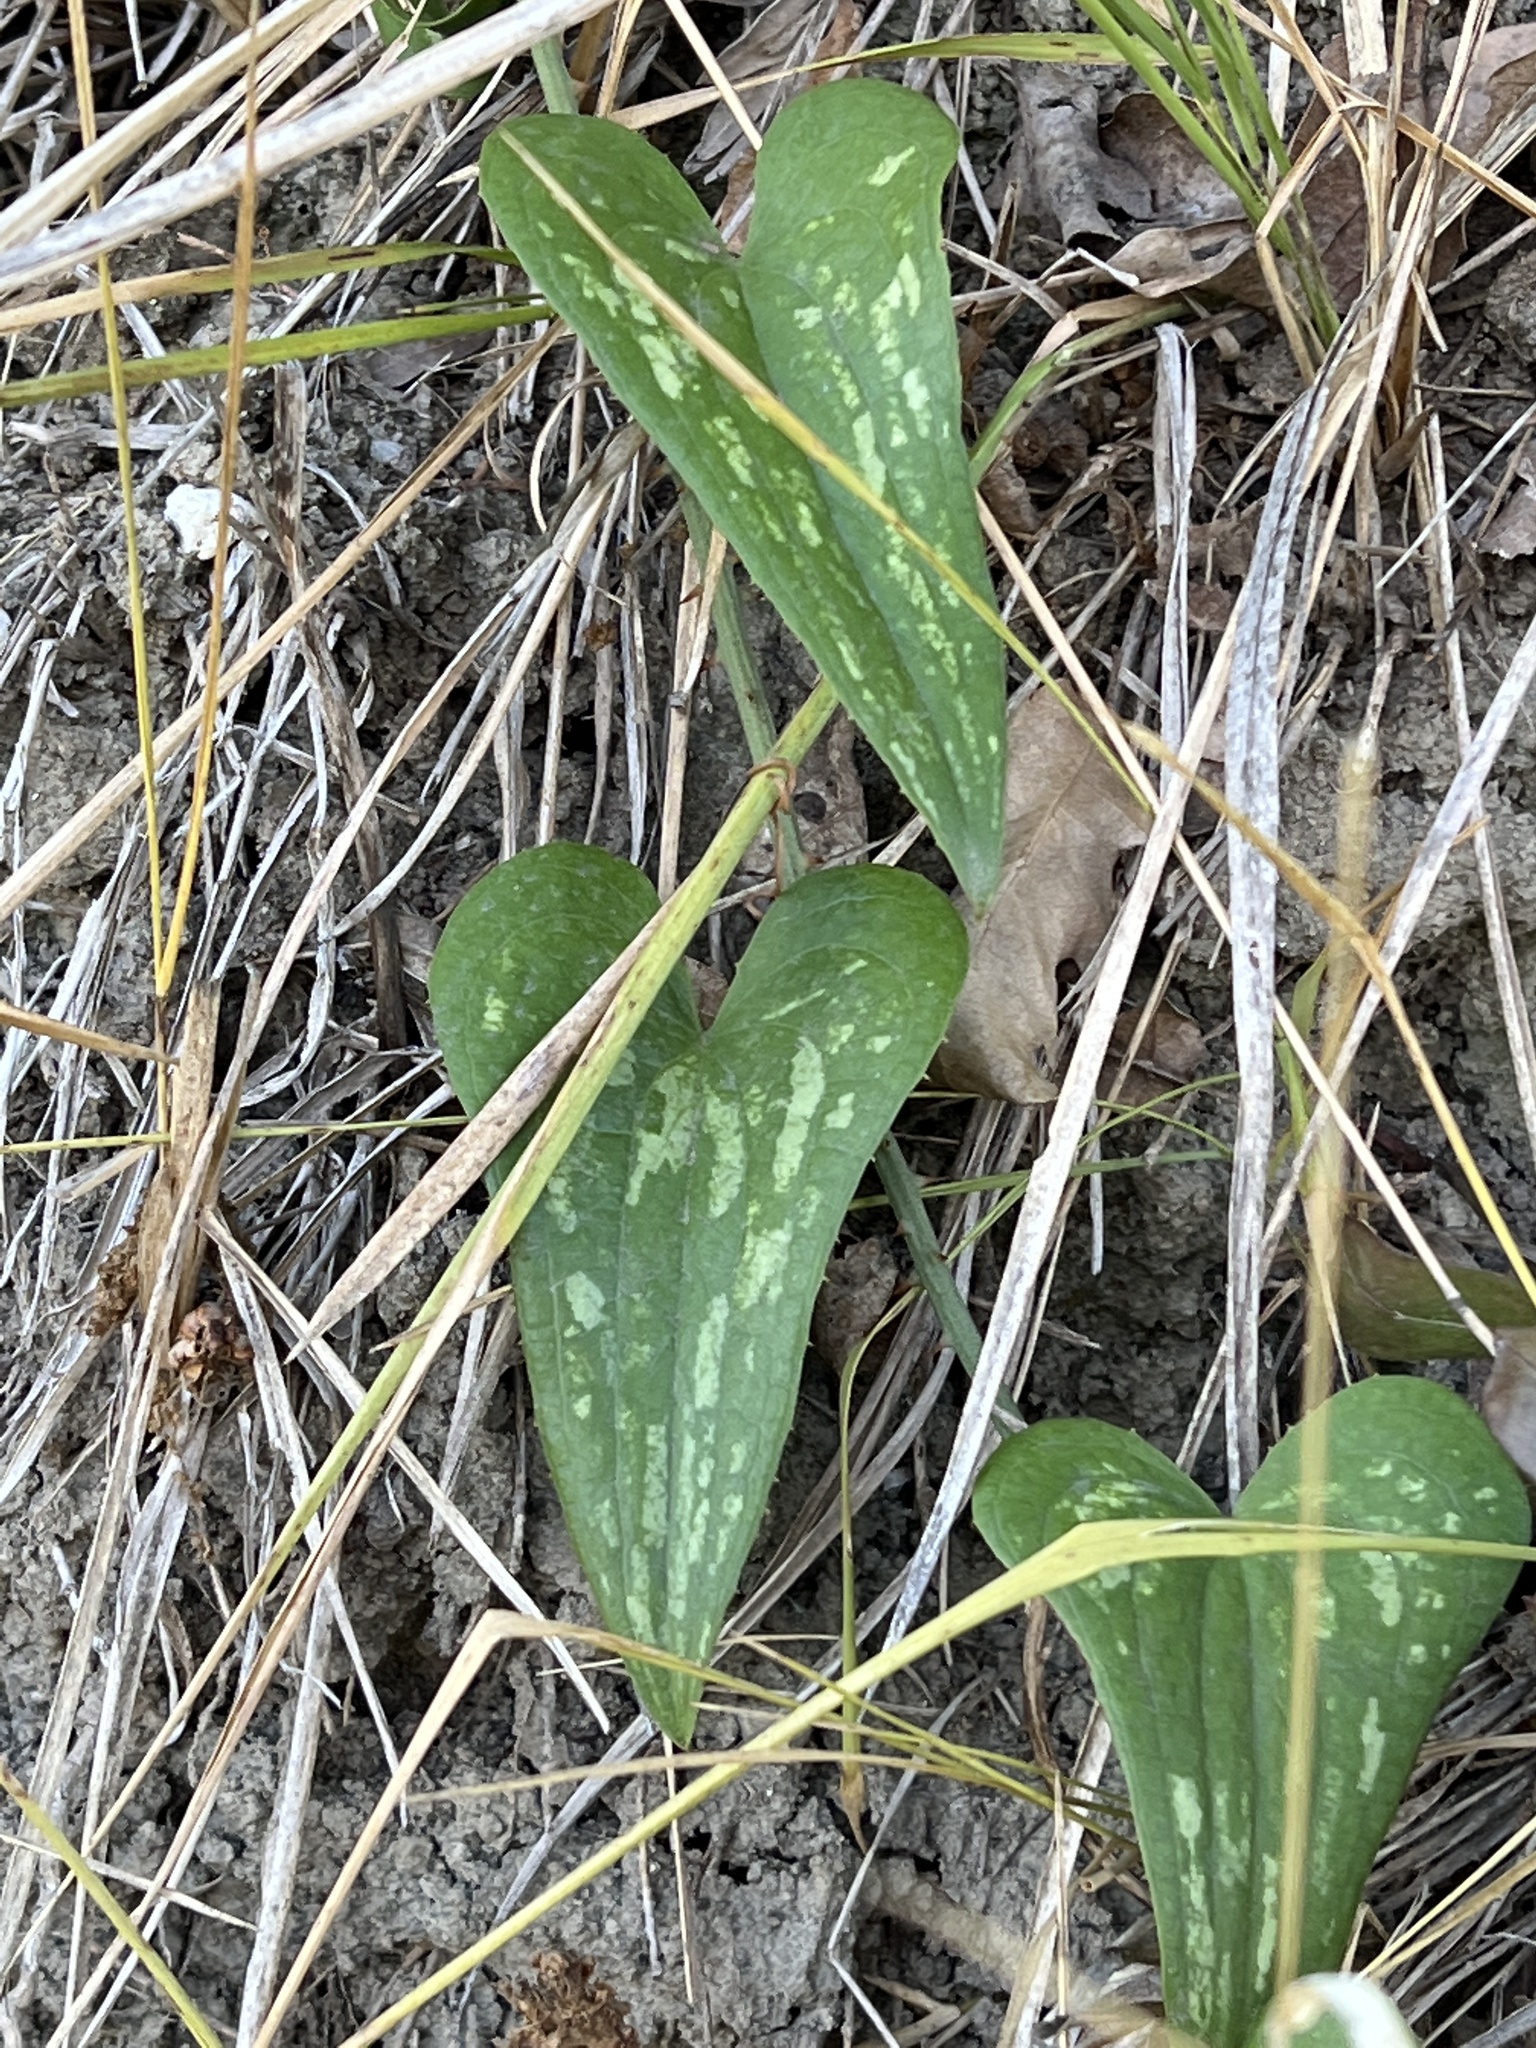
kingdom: Plantae
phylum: Tracheophyta
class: Liliopsida
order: Liliales
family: Smilacaceae
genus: Smilax
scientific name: Smilax aspera
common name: Common smilax
